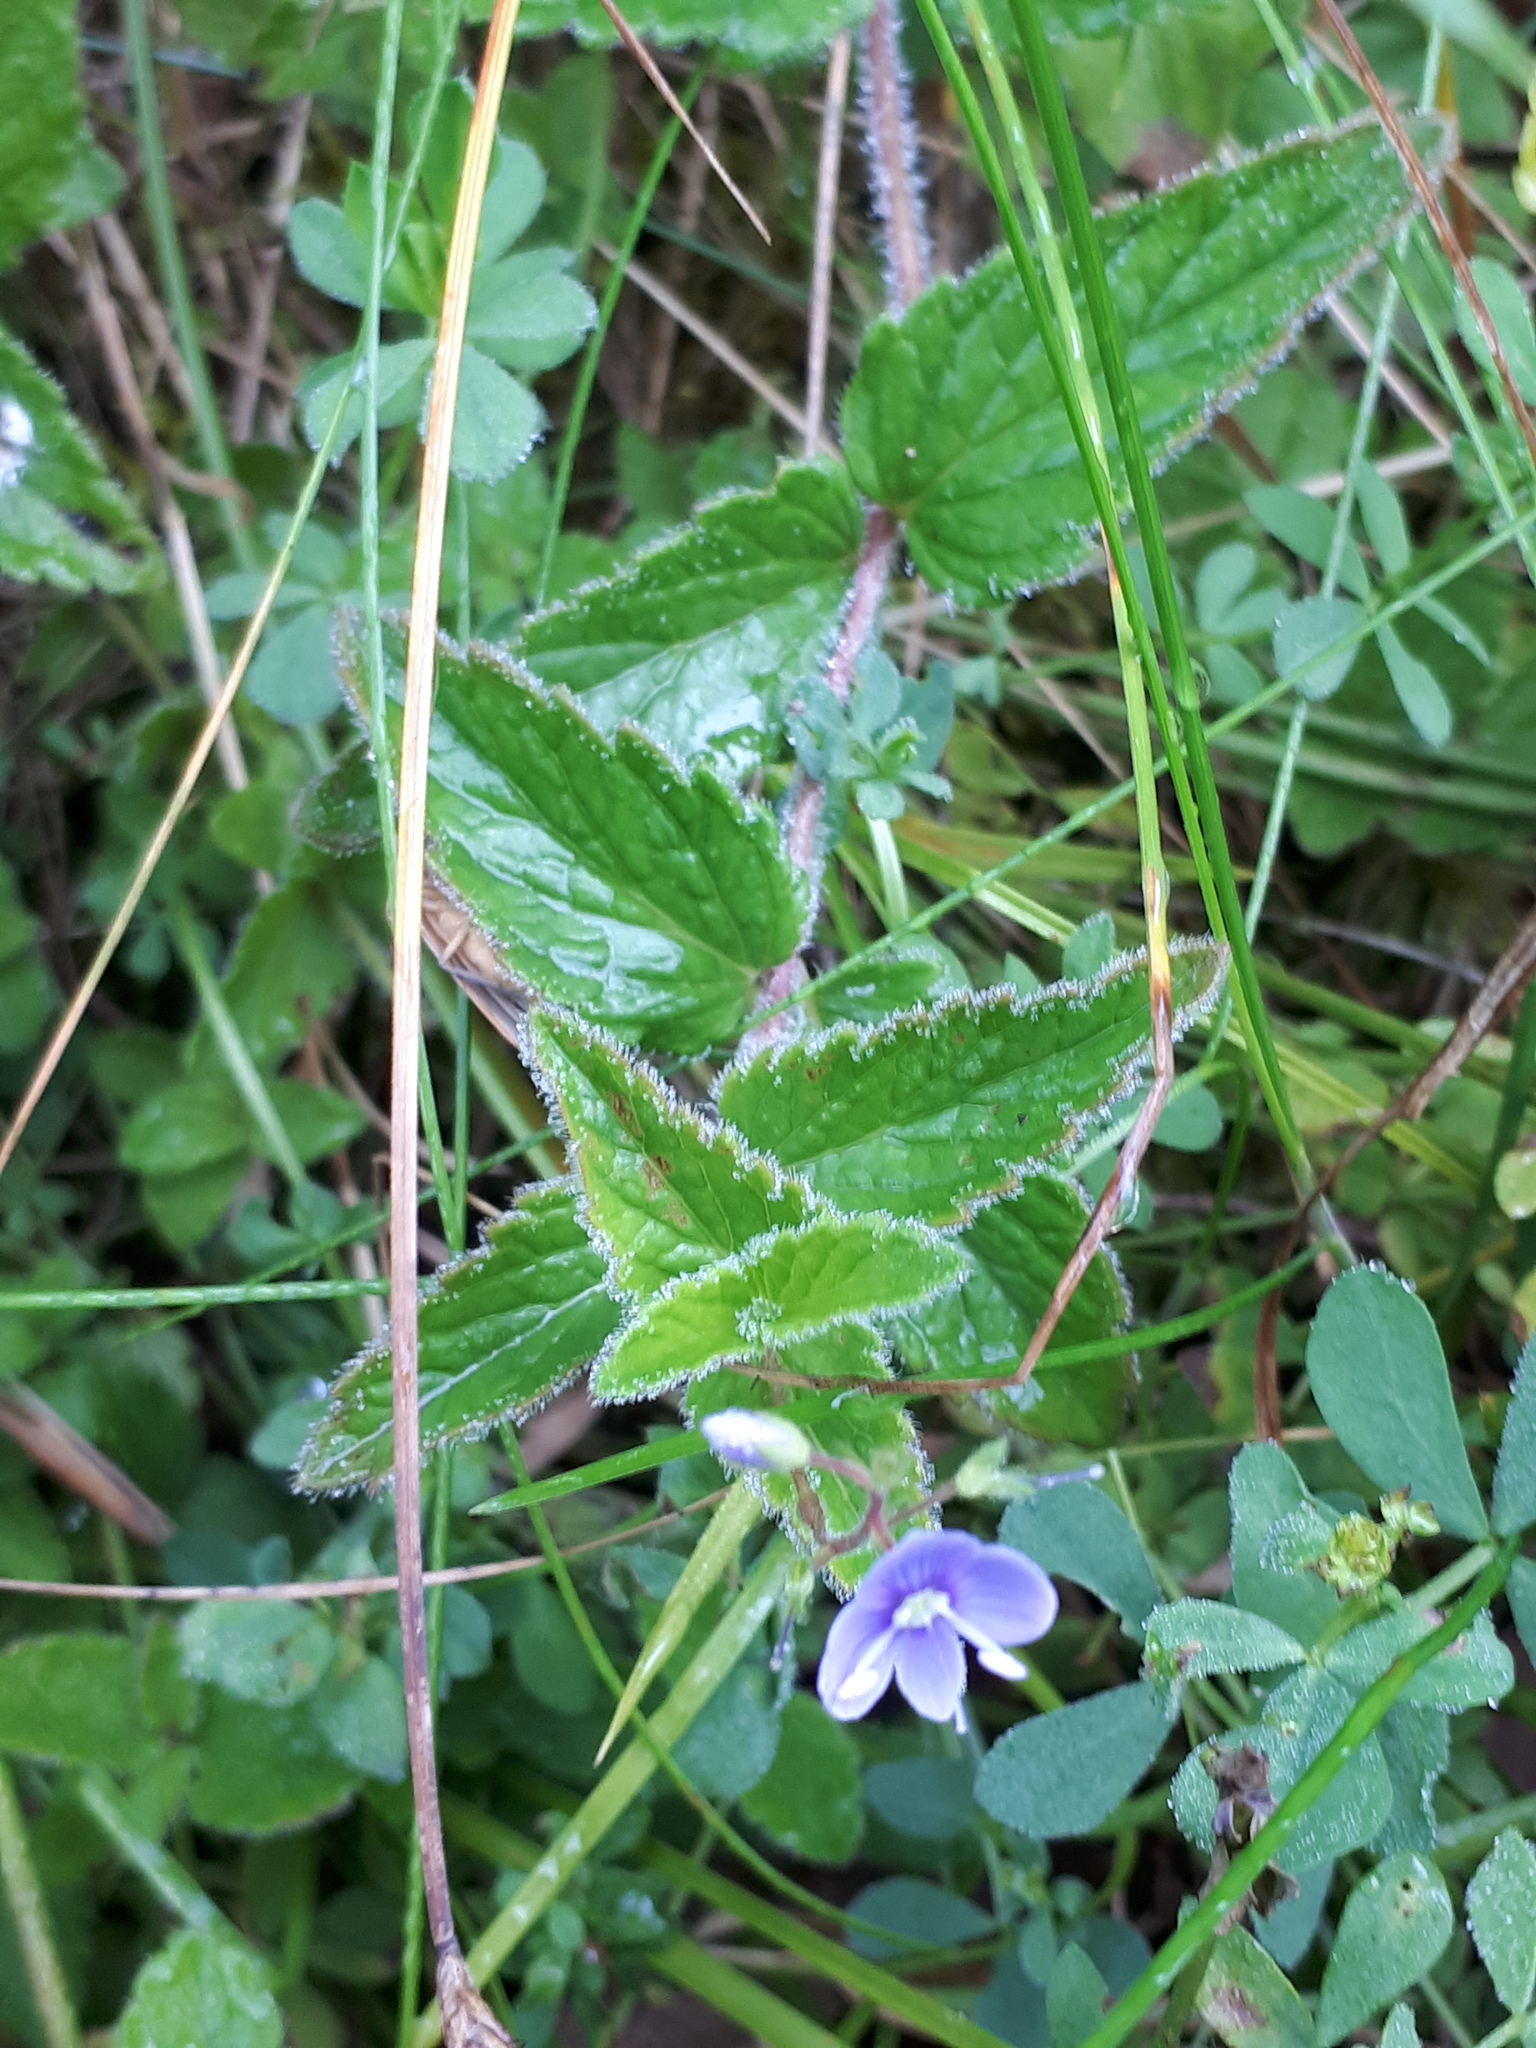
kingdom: Plantae
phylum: Tracheophyta
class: Magnoliopsida
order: Lamiales
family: Plantaginaceae
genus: Veronica
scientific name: Veronica chamaedrys
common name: Germander speedwell
